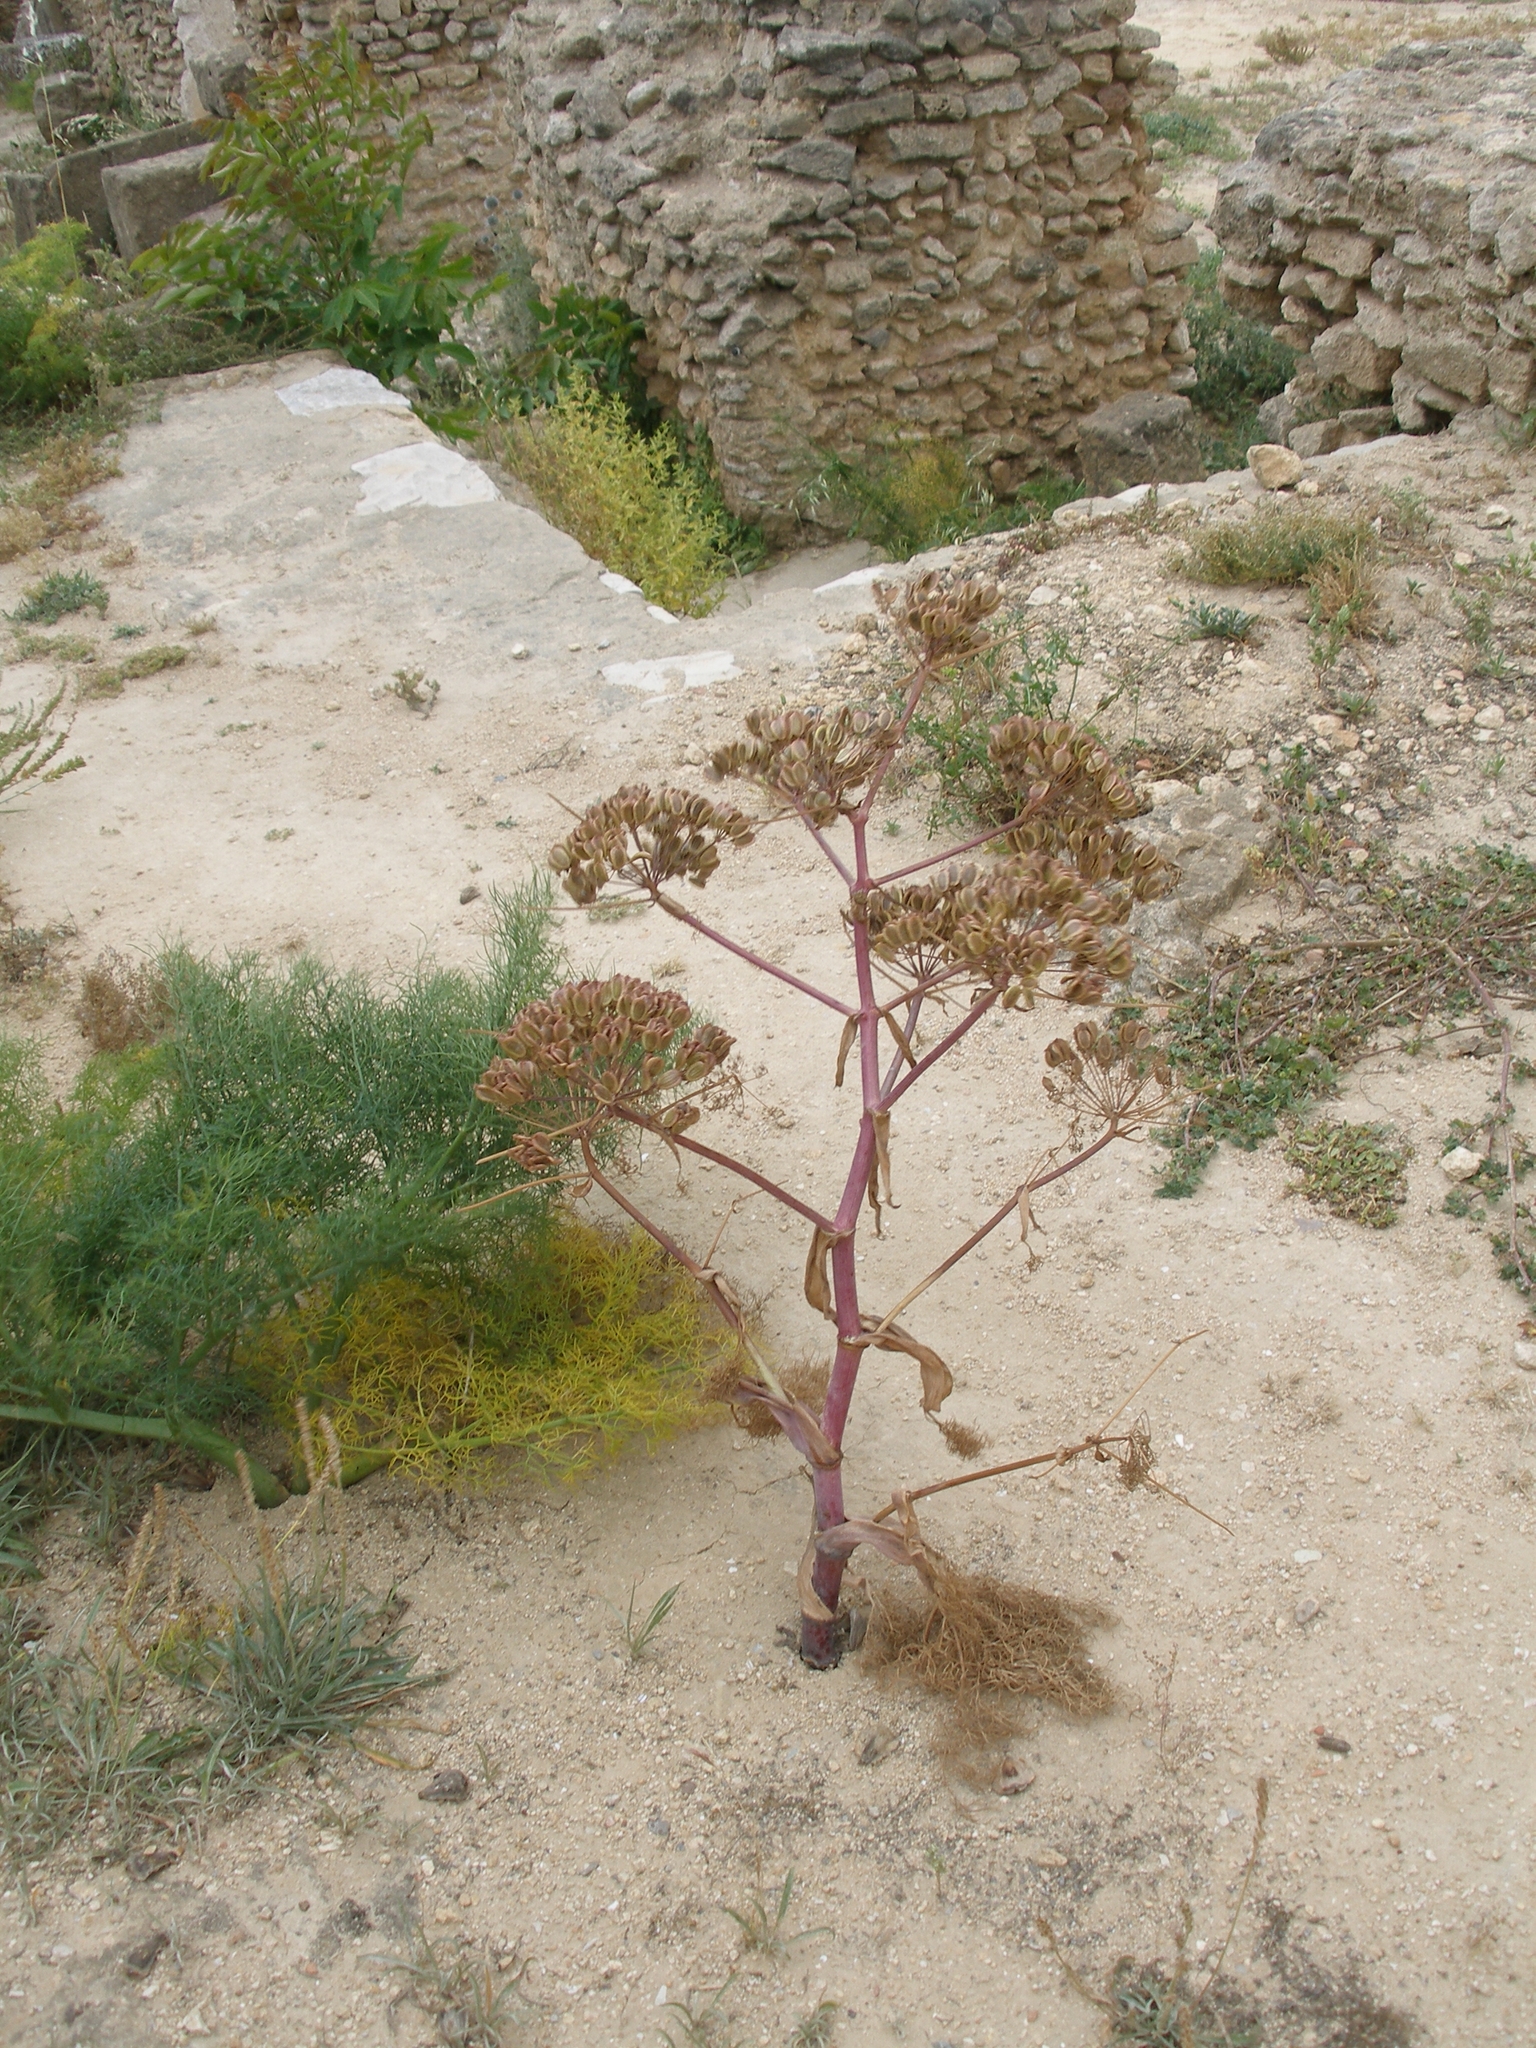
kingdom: Plantae
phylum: Tracheophyta
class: Magnoliopsida
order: Apiales
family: Apiaceae
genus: Thapsia
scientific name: Thapsia garganica
